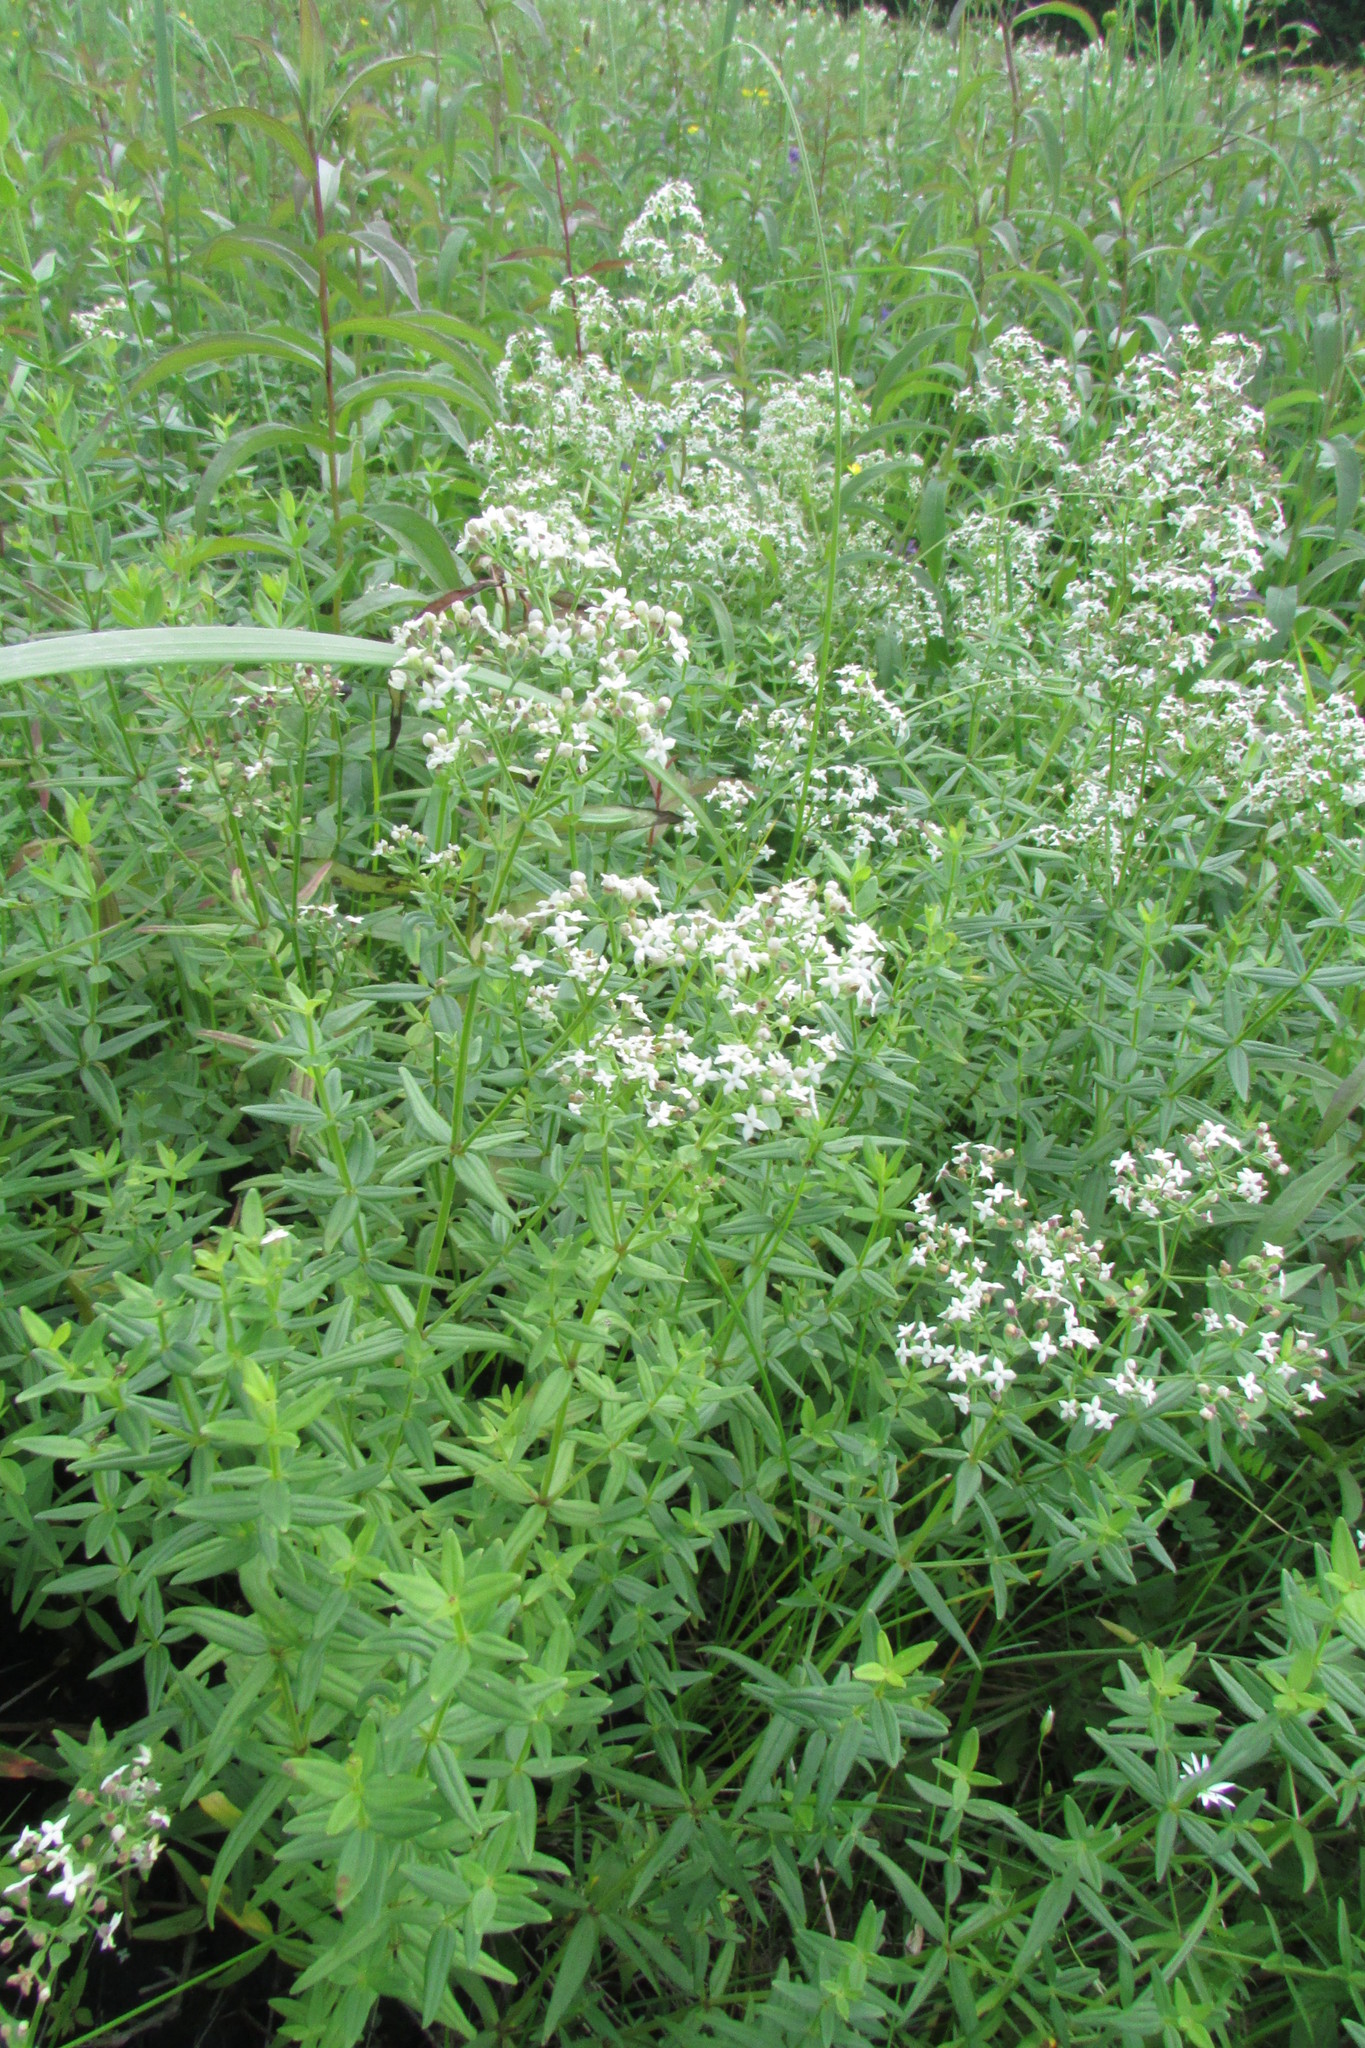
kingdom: Plantae
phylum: Tracheophyta
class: Magnoliopsida
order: Caryophyllales
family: Caryophyllaceae
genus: Dianthus
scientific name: Dianthus superbus
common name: Fringed pink
